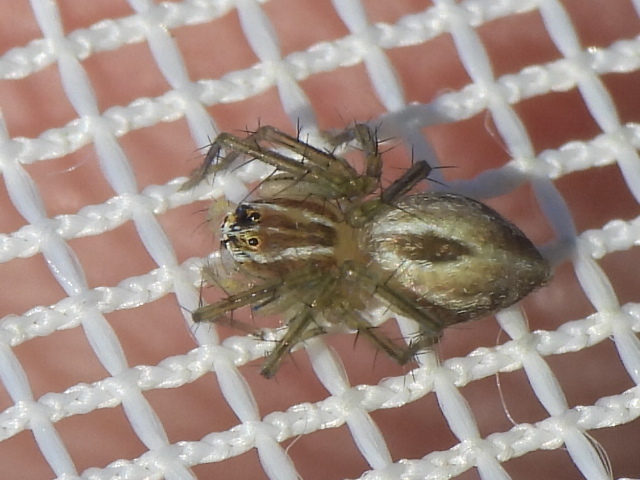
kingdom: Animalia
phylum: Arthropoda
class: Arachnida
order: Araneae
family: Oxyopidae
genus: Oxyopes
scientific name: Oxyopes salticus
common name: Lynx spiders
